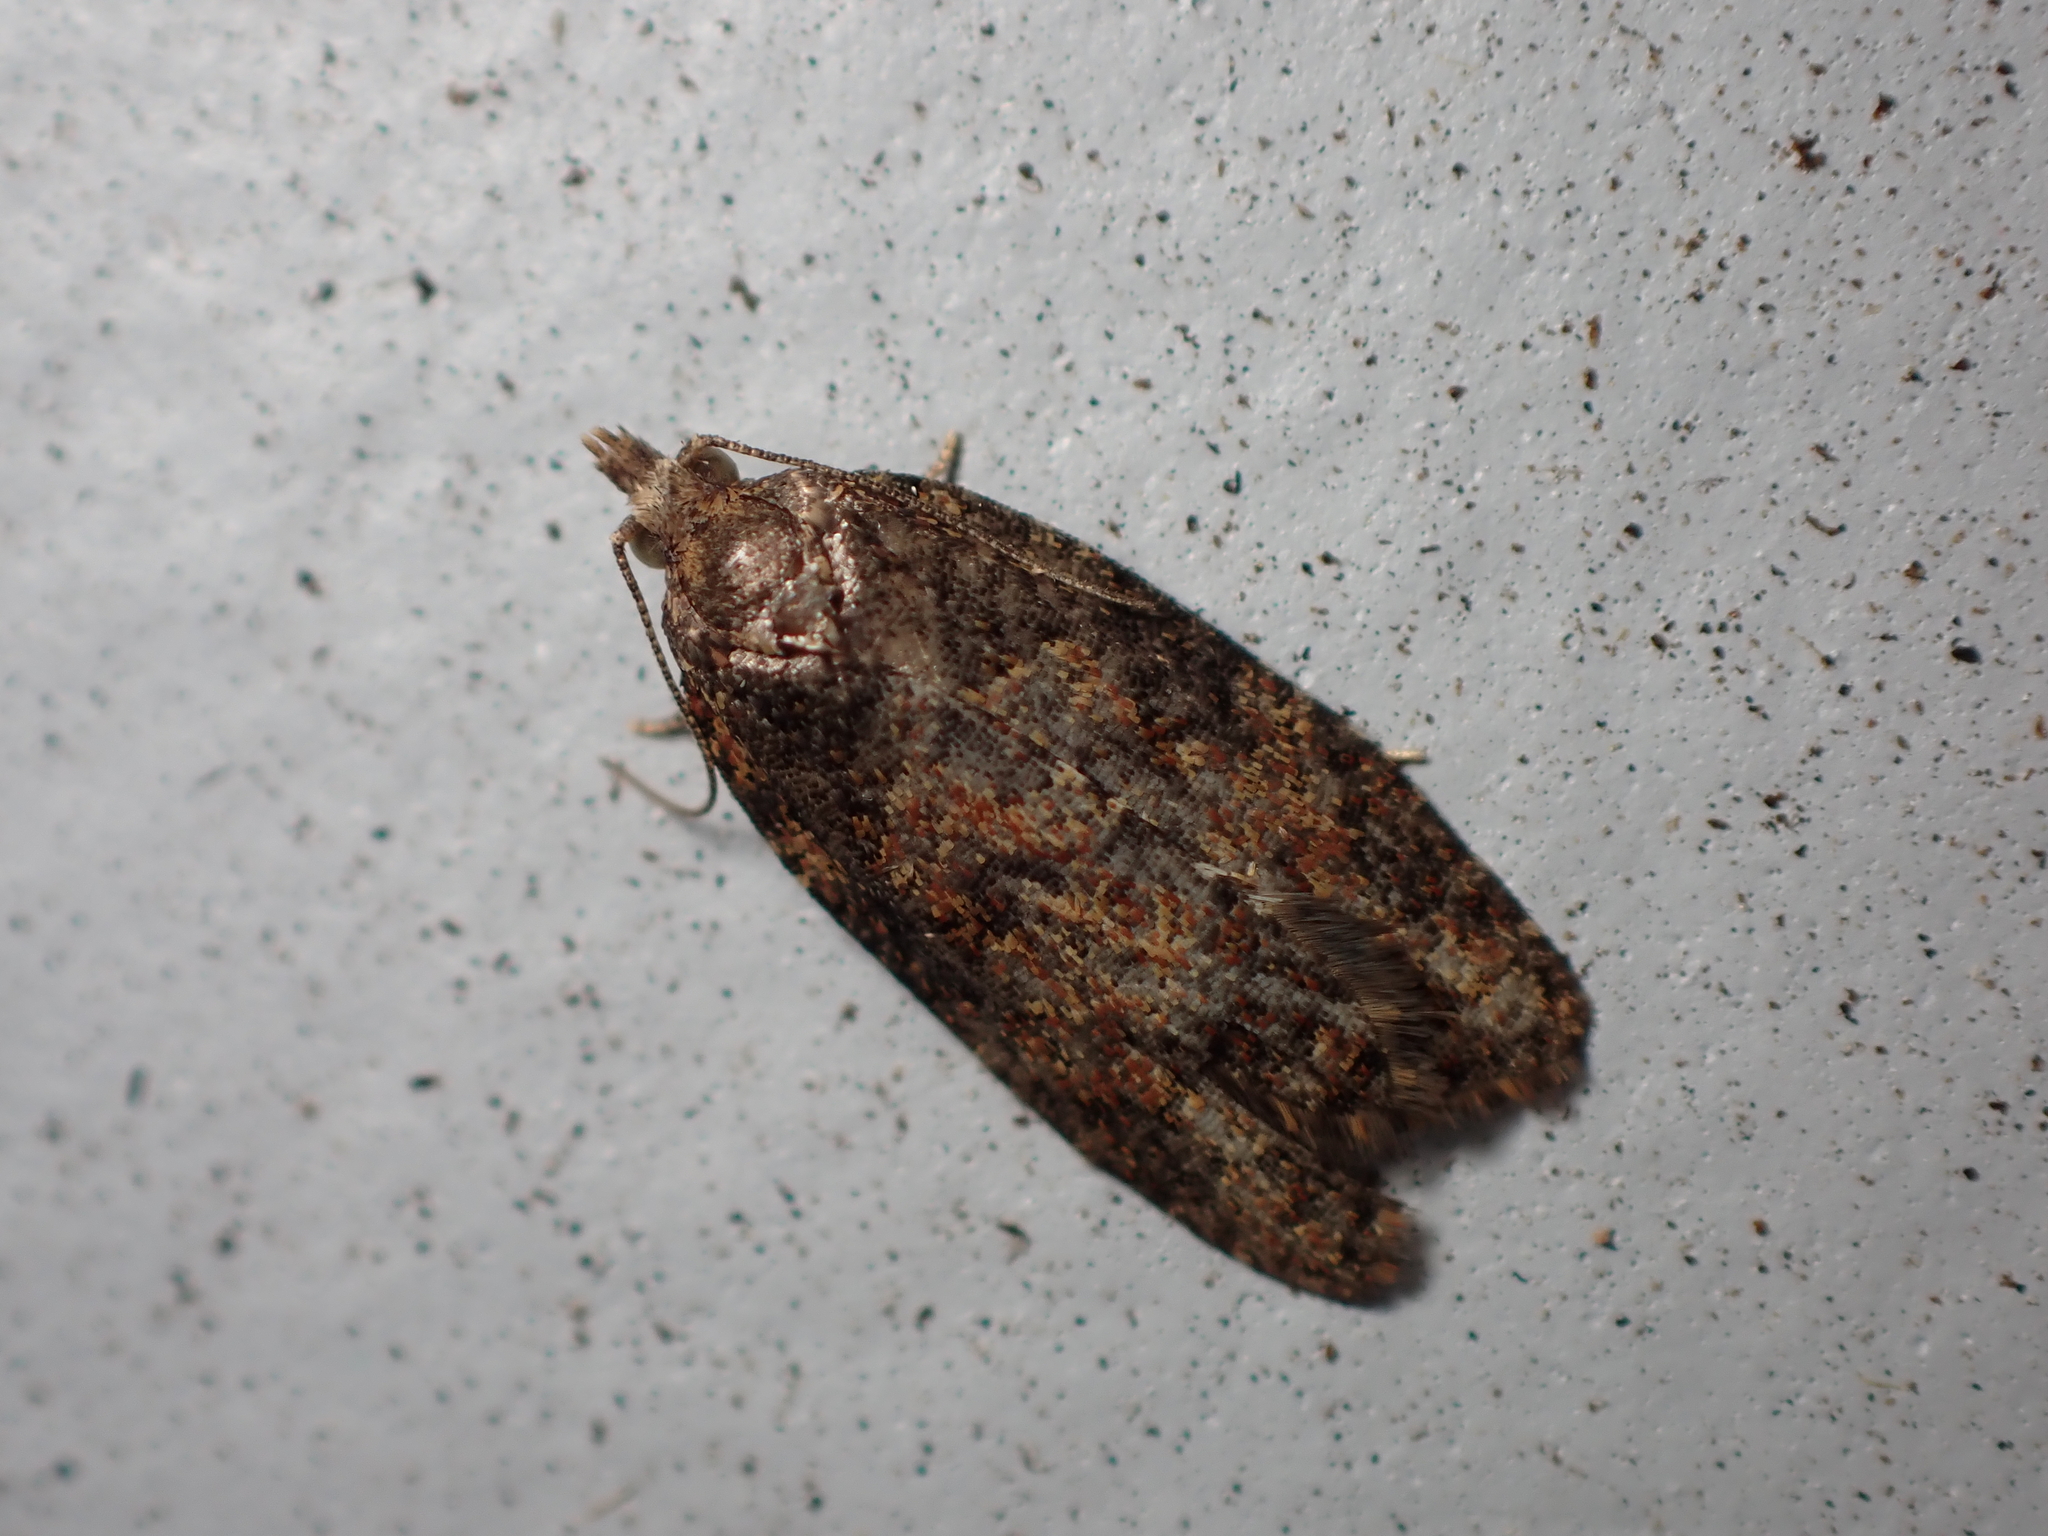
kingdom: Animalia
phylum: Arthropoda
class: Insecta
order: Lepidoptera
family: Tortricidae
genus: Capua
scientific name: Capua intractana
